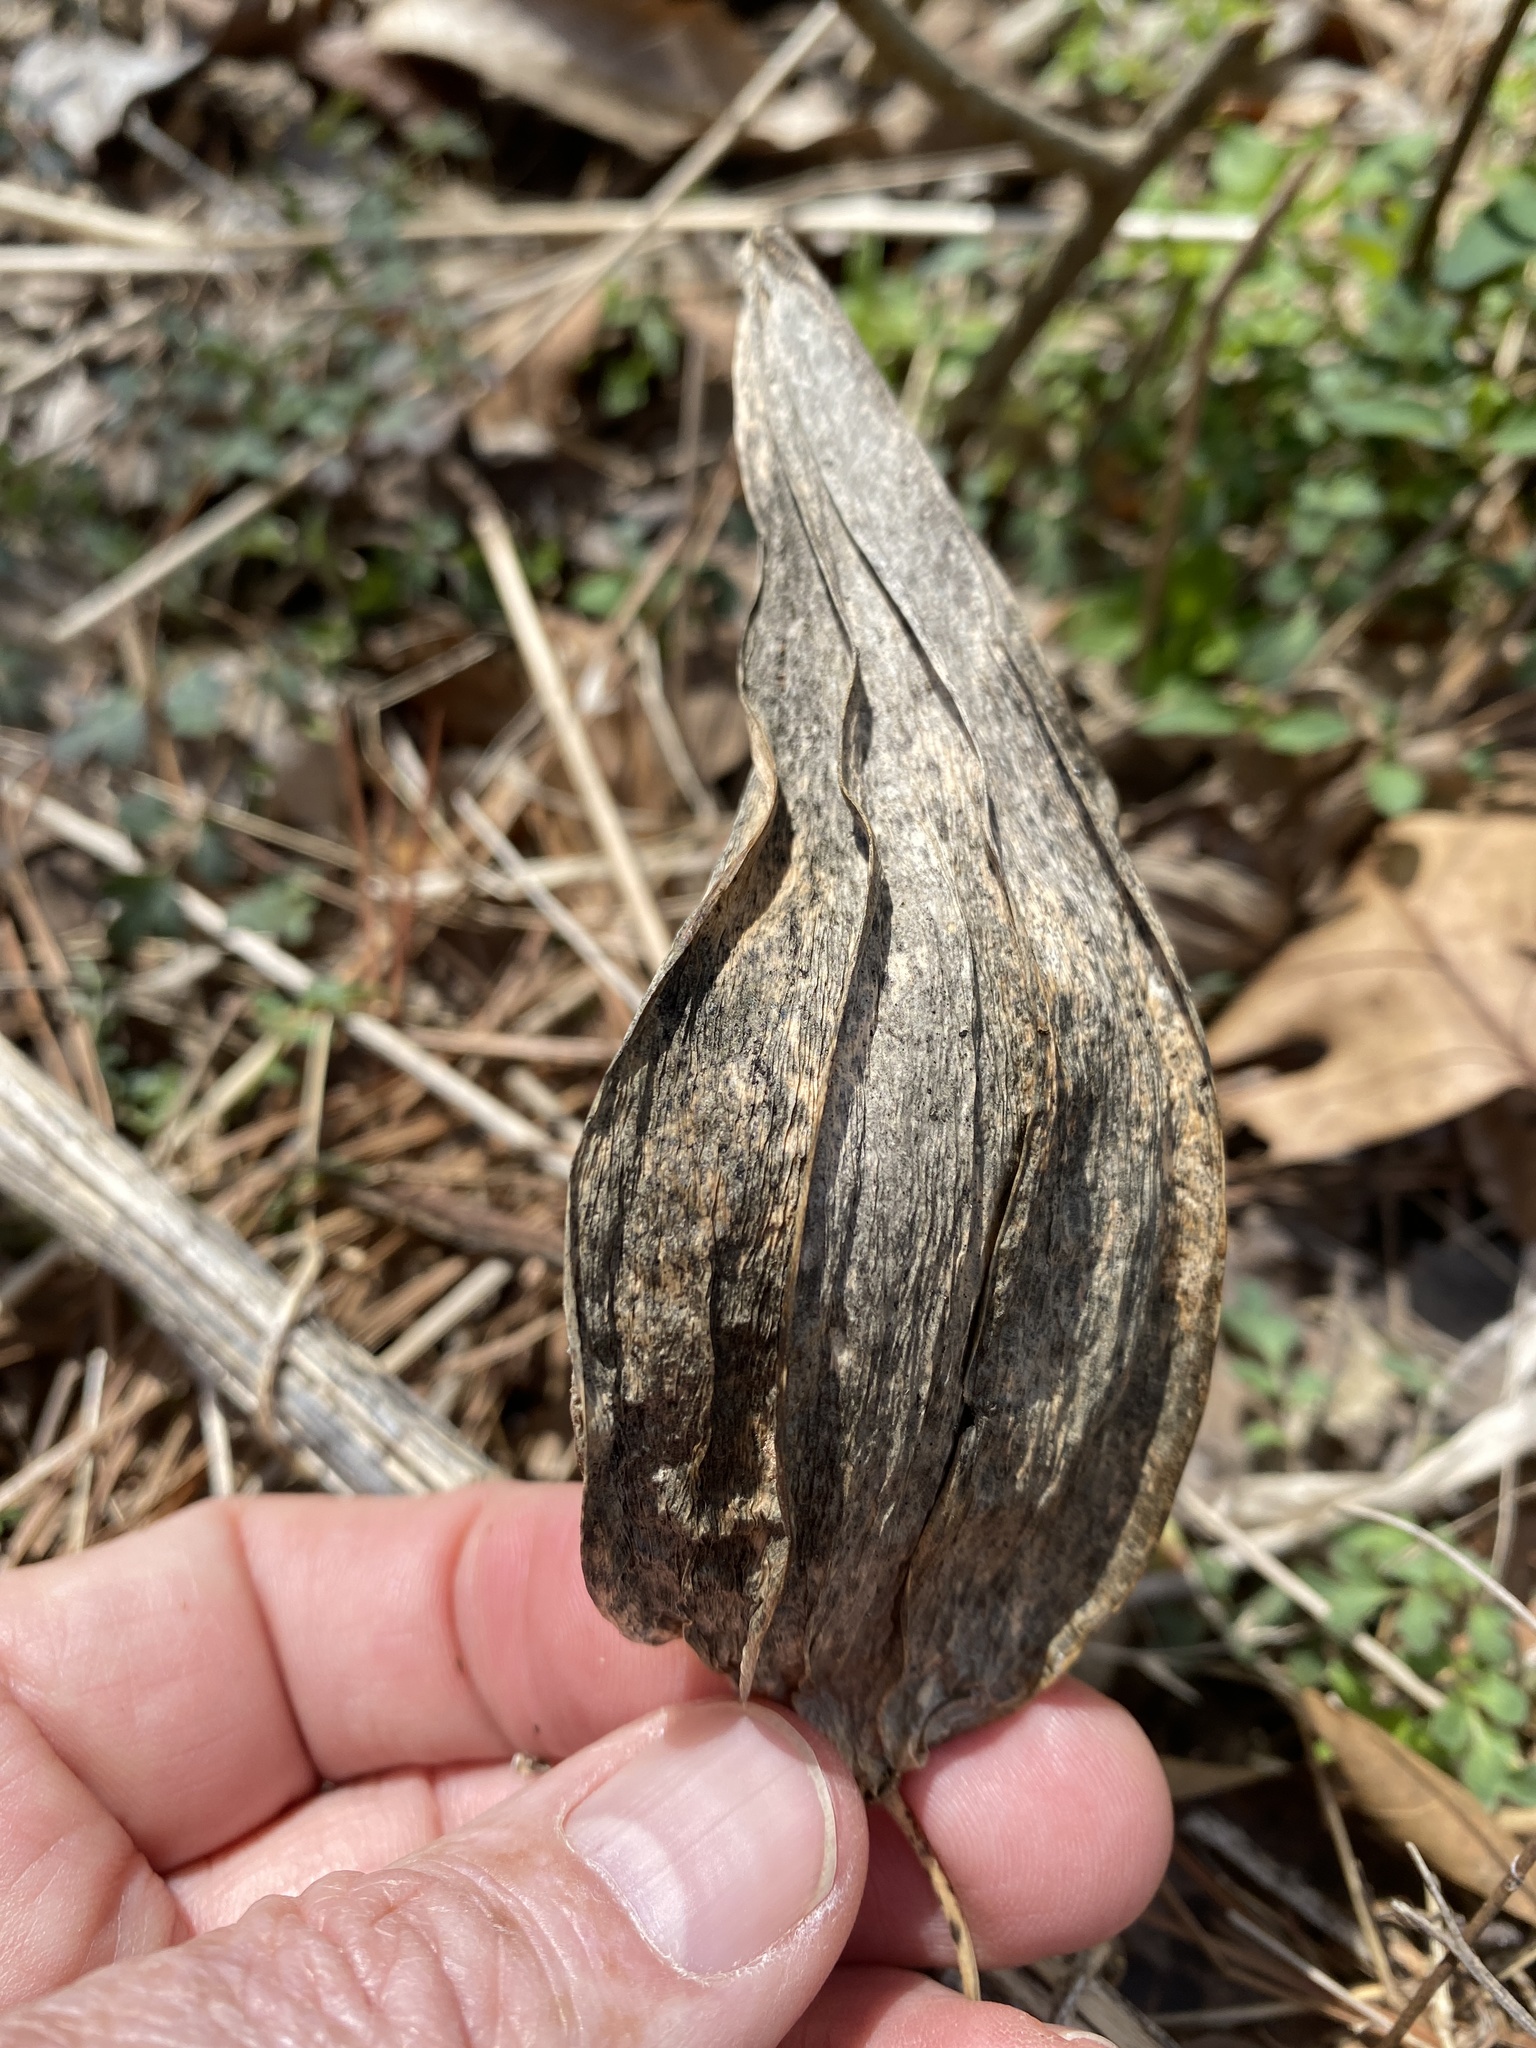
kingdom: Plantae
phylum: Tracheophyta
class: Magnoliopsida
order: Gentianales
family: Apocynaceae
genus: Gonolobus
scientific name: Gonolobus suberosus
